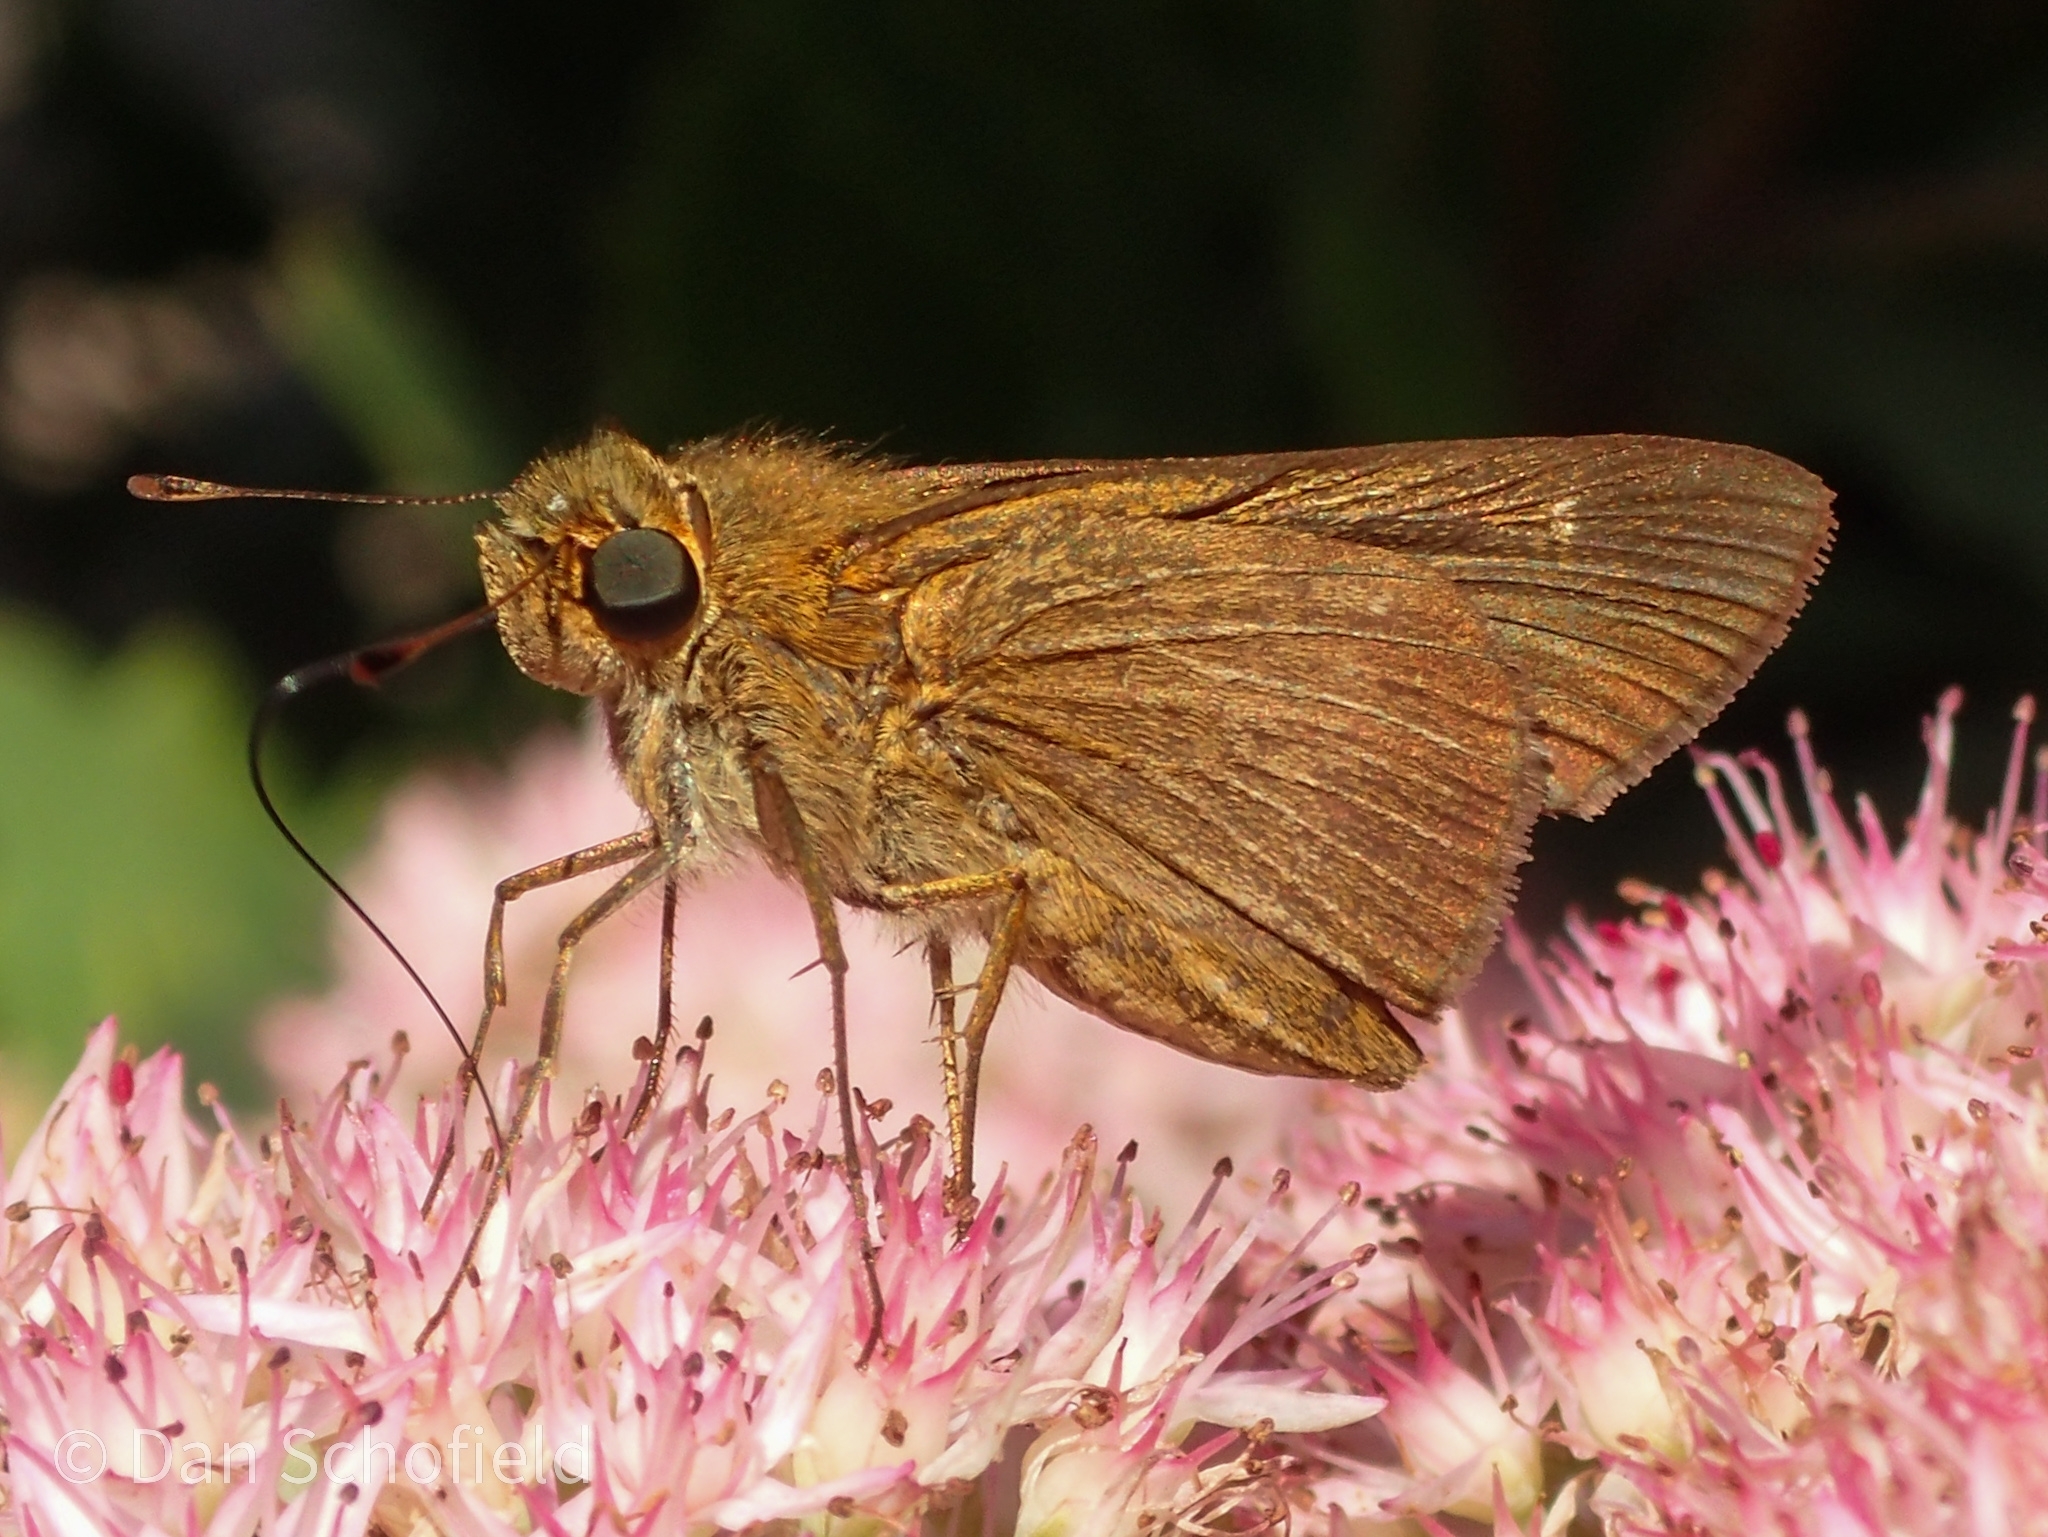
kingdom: Animalia
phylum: Arthropoda
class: Insecta
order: Lepidoptera
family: Hesperiidae
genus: Panoquina
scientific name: Panoquina ocola
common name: Ocola skipper
